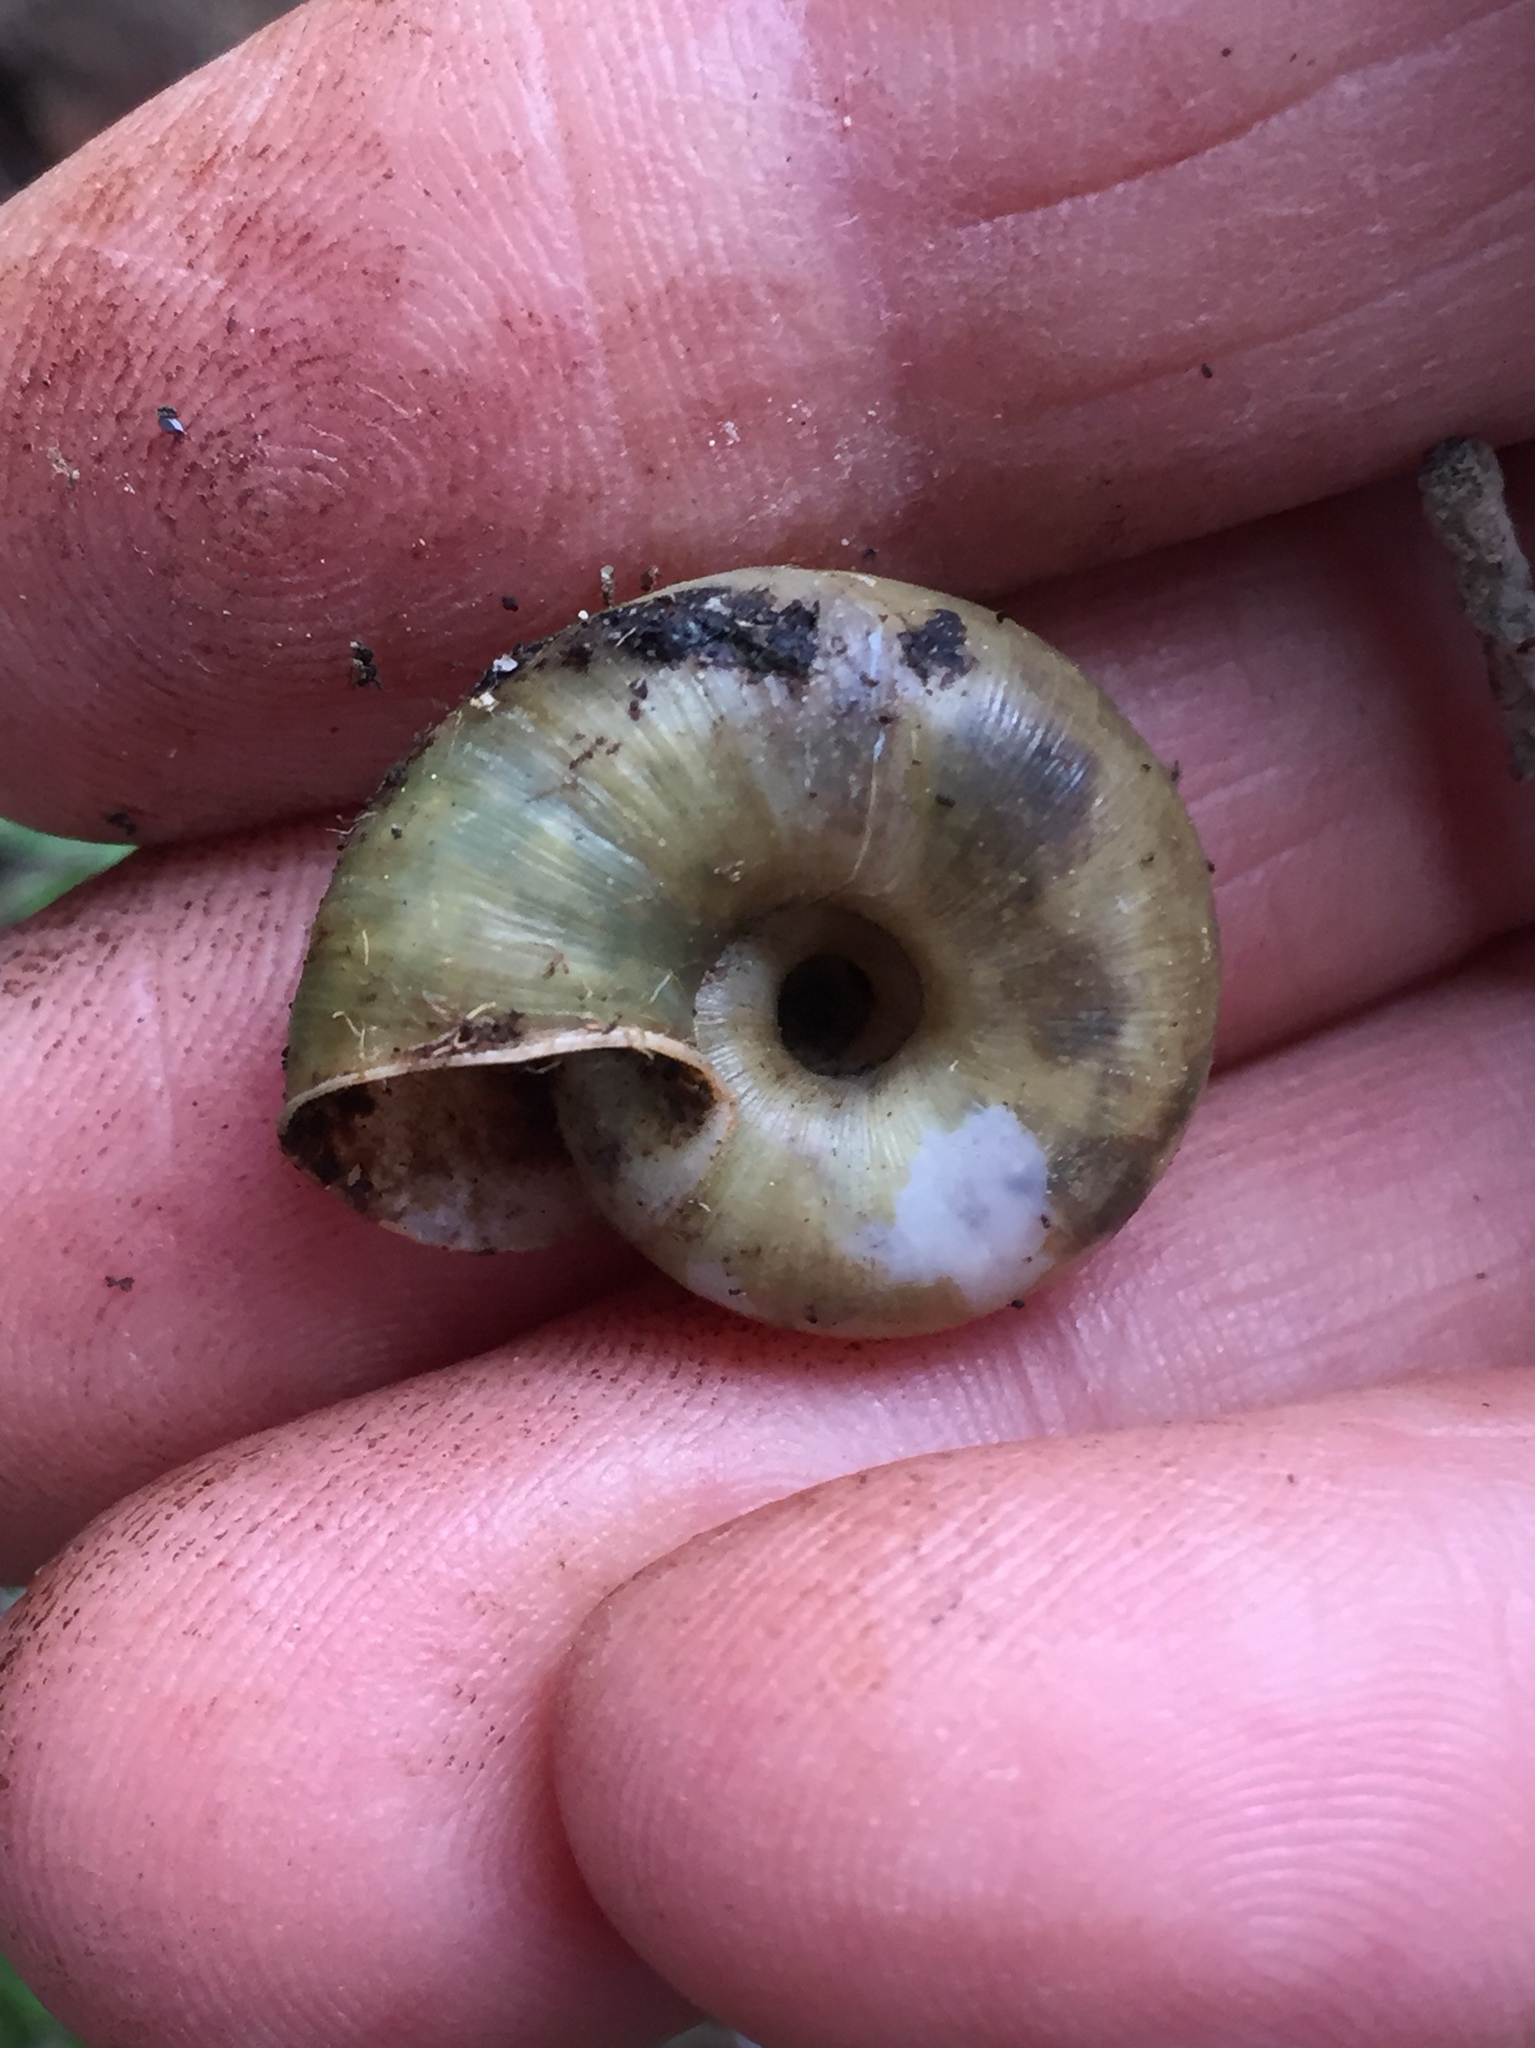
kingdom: Animalia
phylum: Mollusca
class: Gastropoda
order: Stylommatophora
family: Haplotrematidae
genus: Haplotrema
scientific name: Haplotrema minimum
